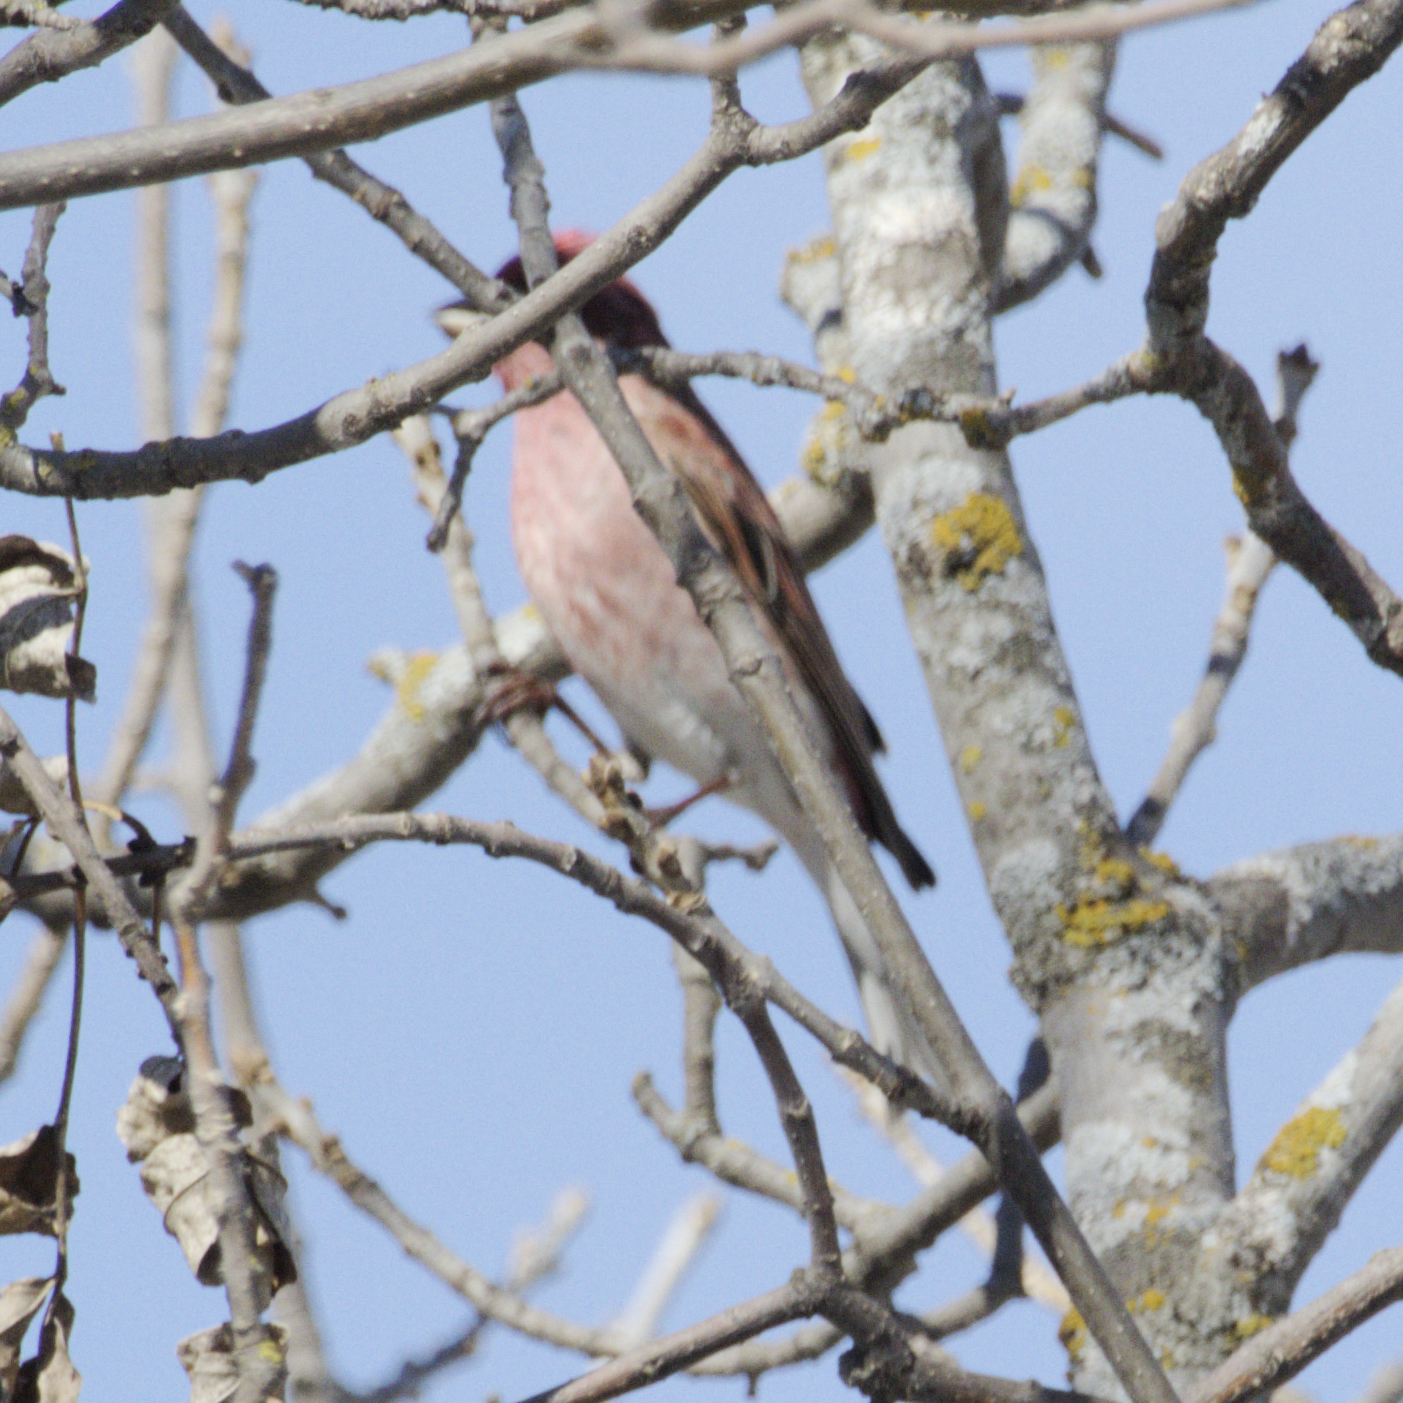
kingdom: Animalia
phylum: Chordata
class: Aves
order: Passeriformes
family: Fringillidae
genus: Haemorhous
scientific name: Haemorhous purpureus
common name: Purple finch
